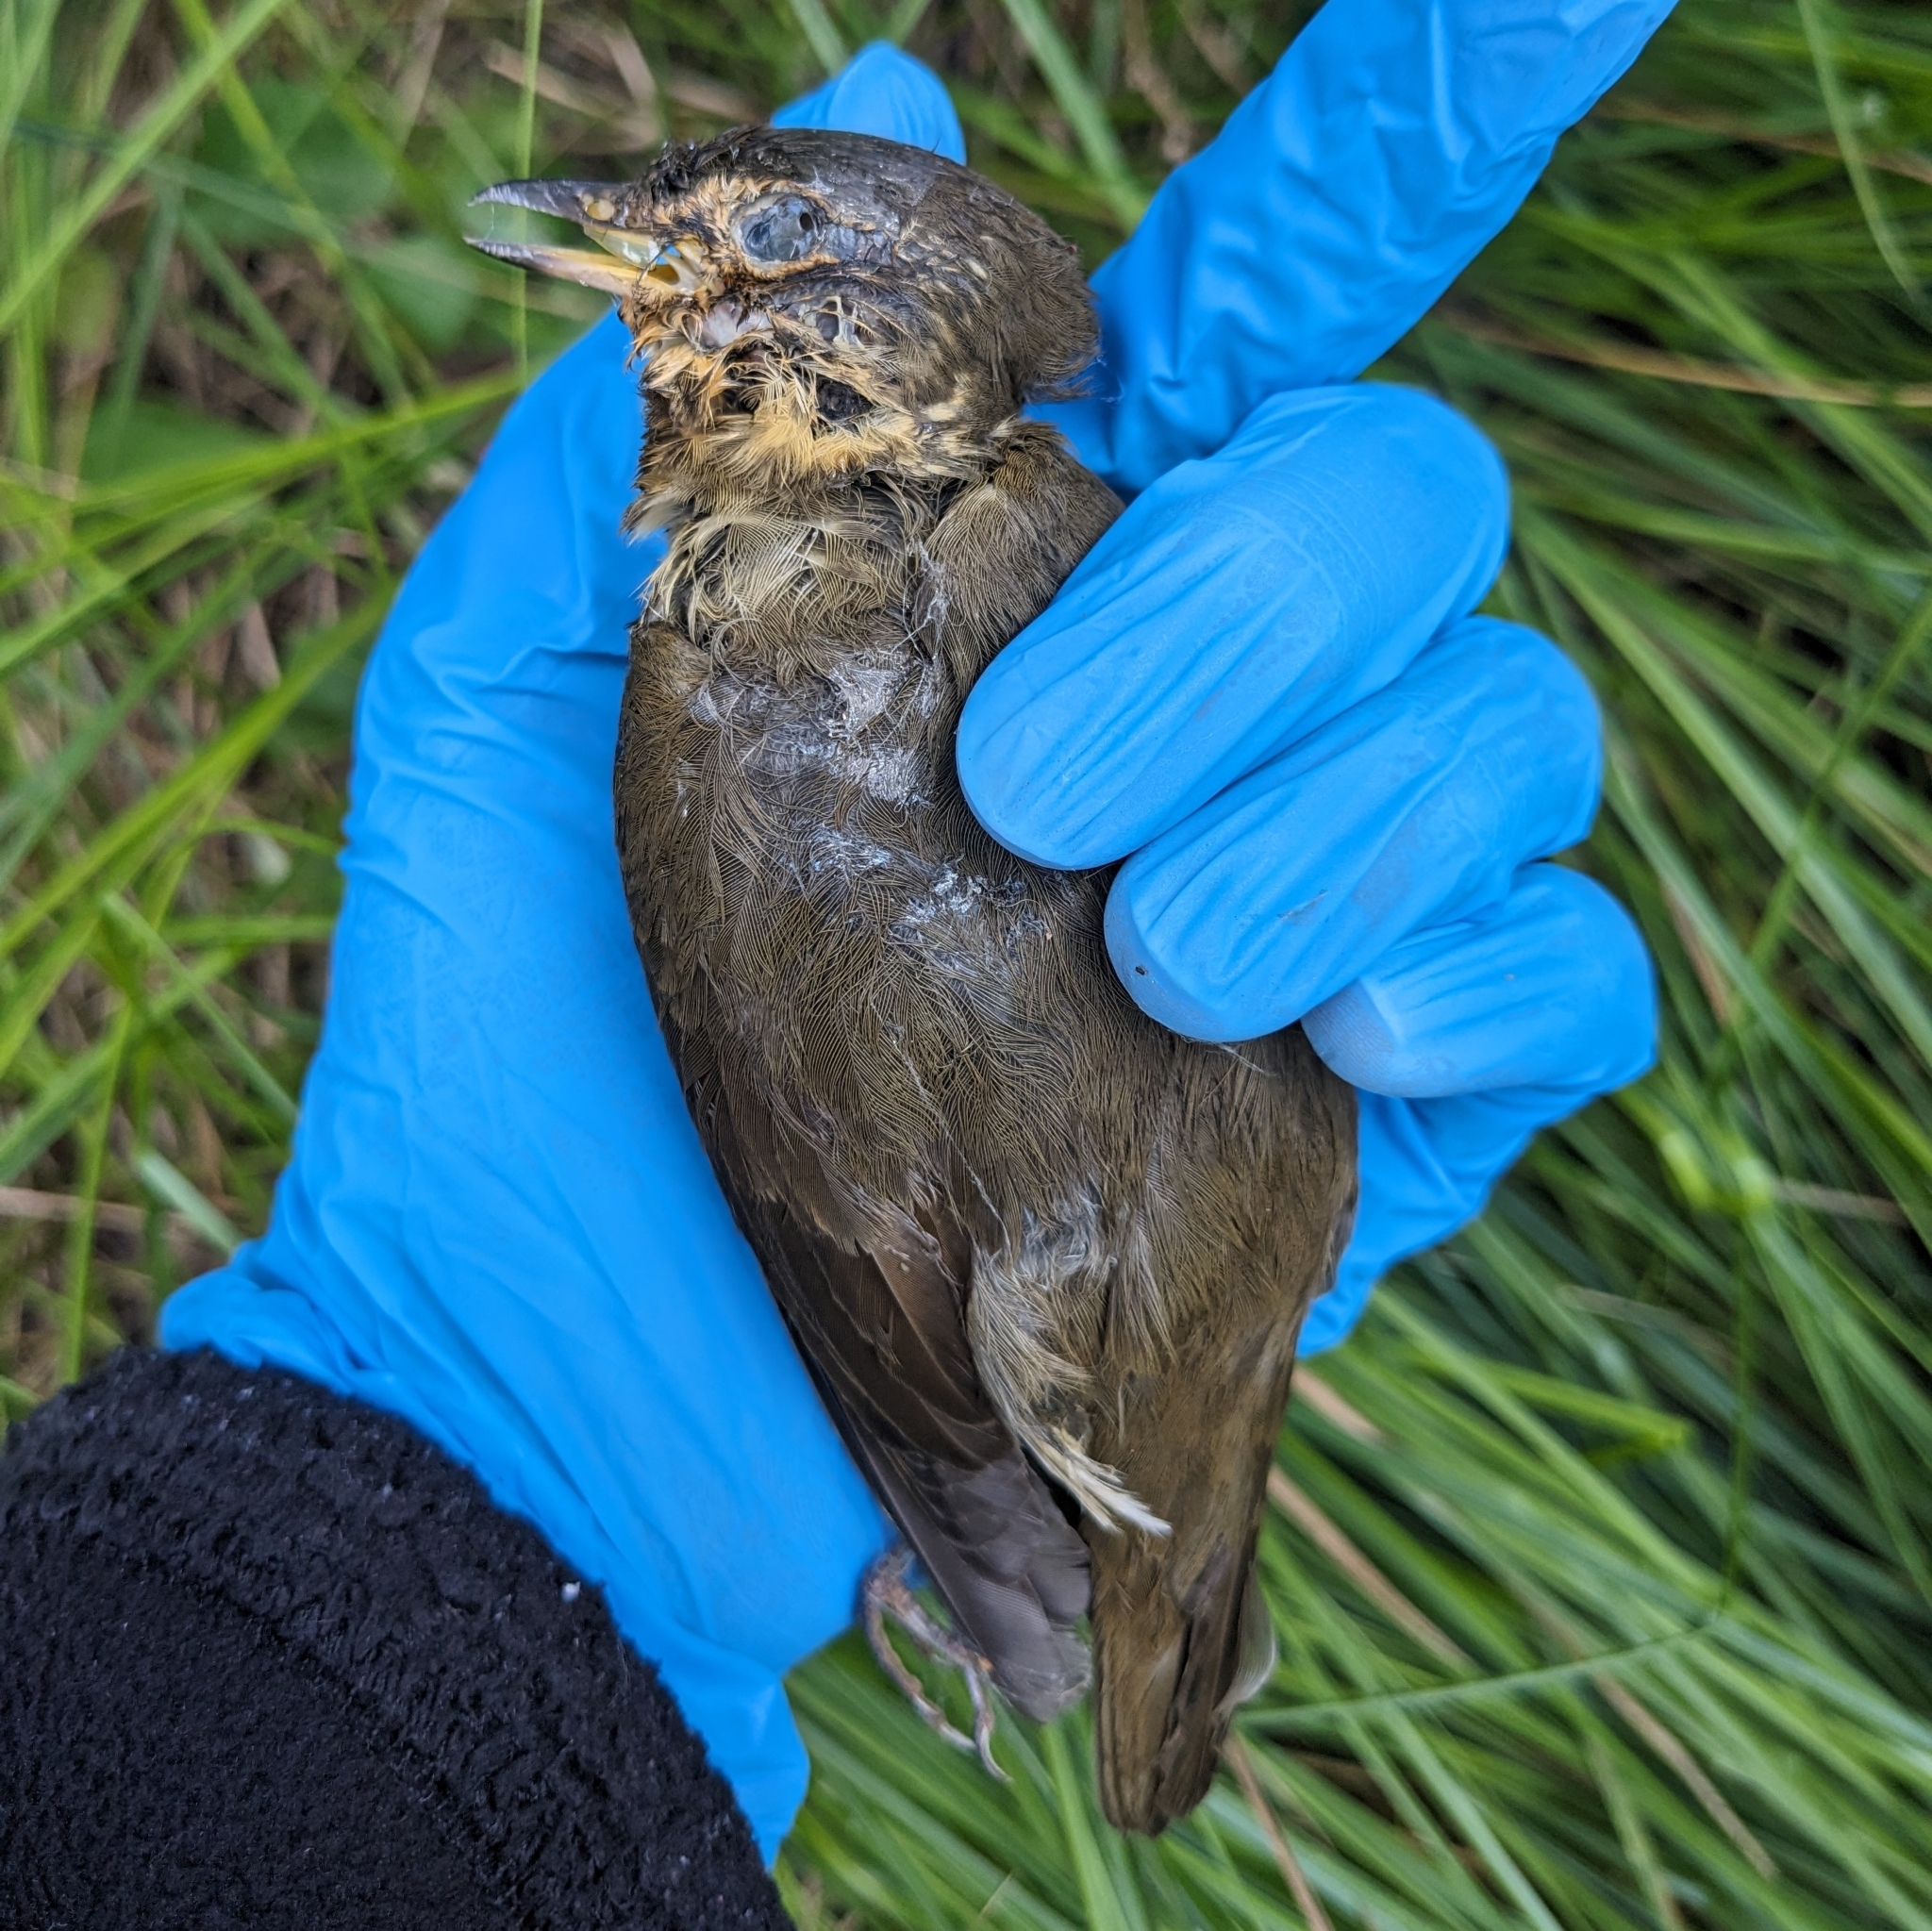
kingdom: Animalia
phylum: Chordata
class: Aves
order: Passeriformes
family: Turdidae
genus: Catharus
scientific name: Catharus ustulatus
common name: Swainson's thrush
